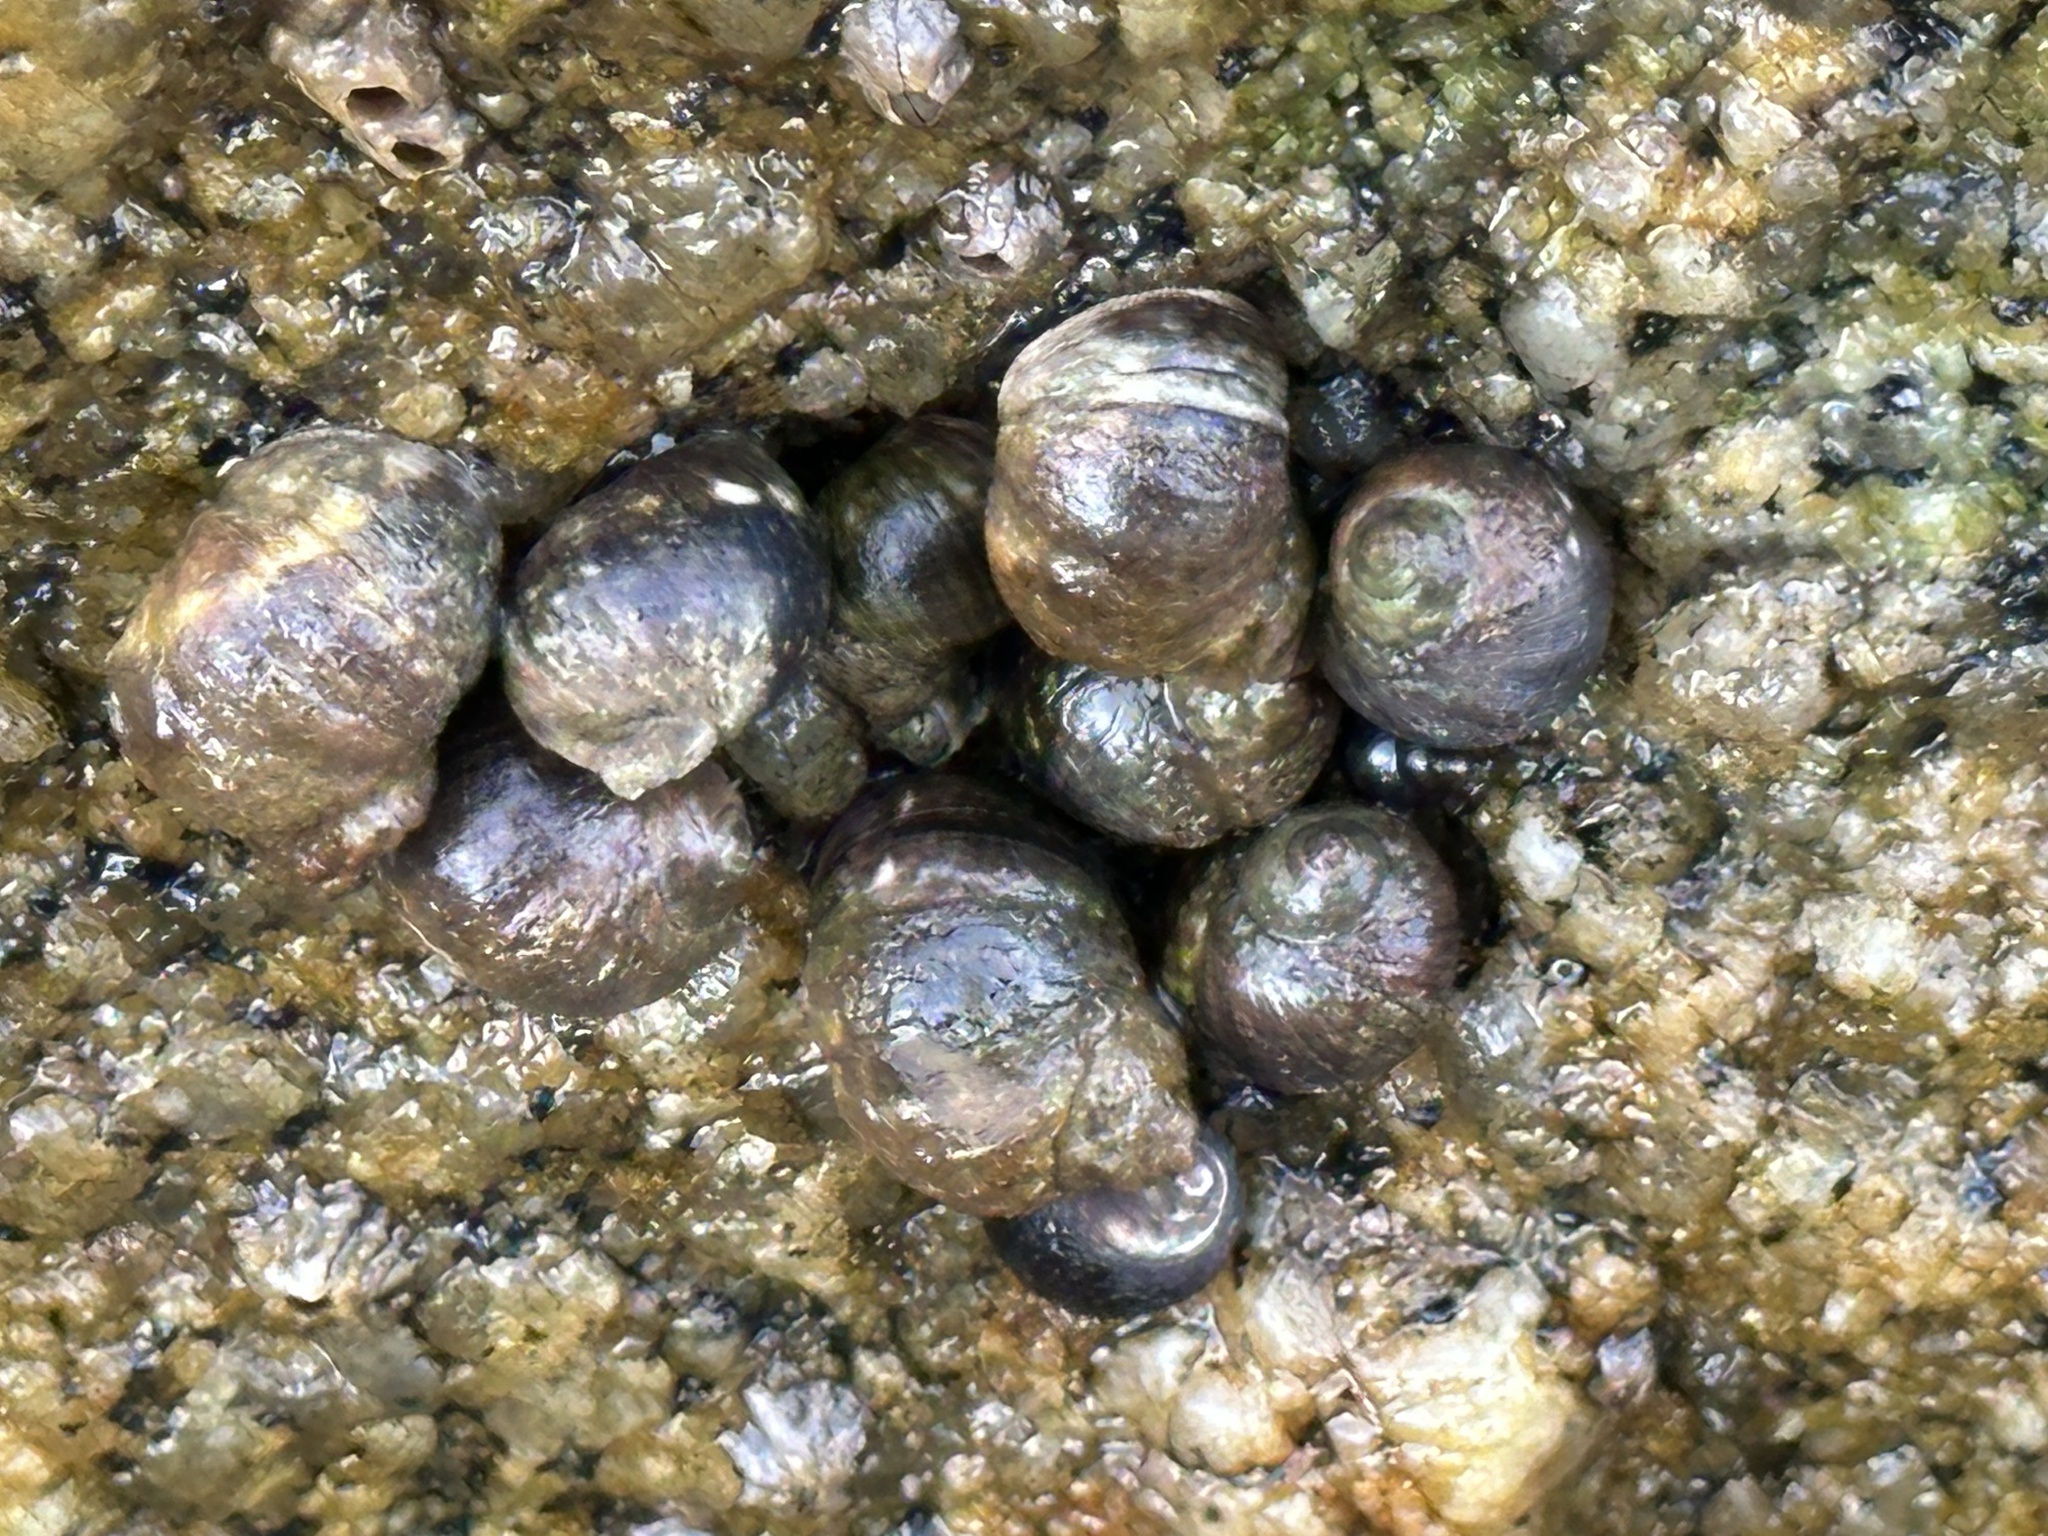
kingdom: Animalia
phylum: Mollusca
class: Gastropoda
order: Littorinimorpha
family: Littorinidae
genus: Littorina
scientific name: Littorina keenae
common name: Eroded periwinkle
